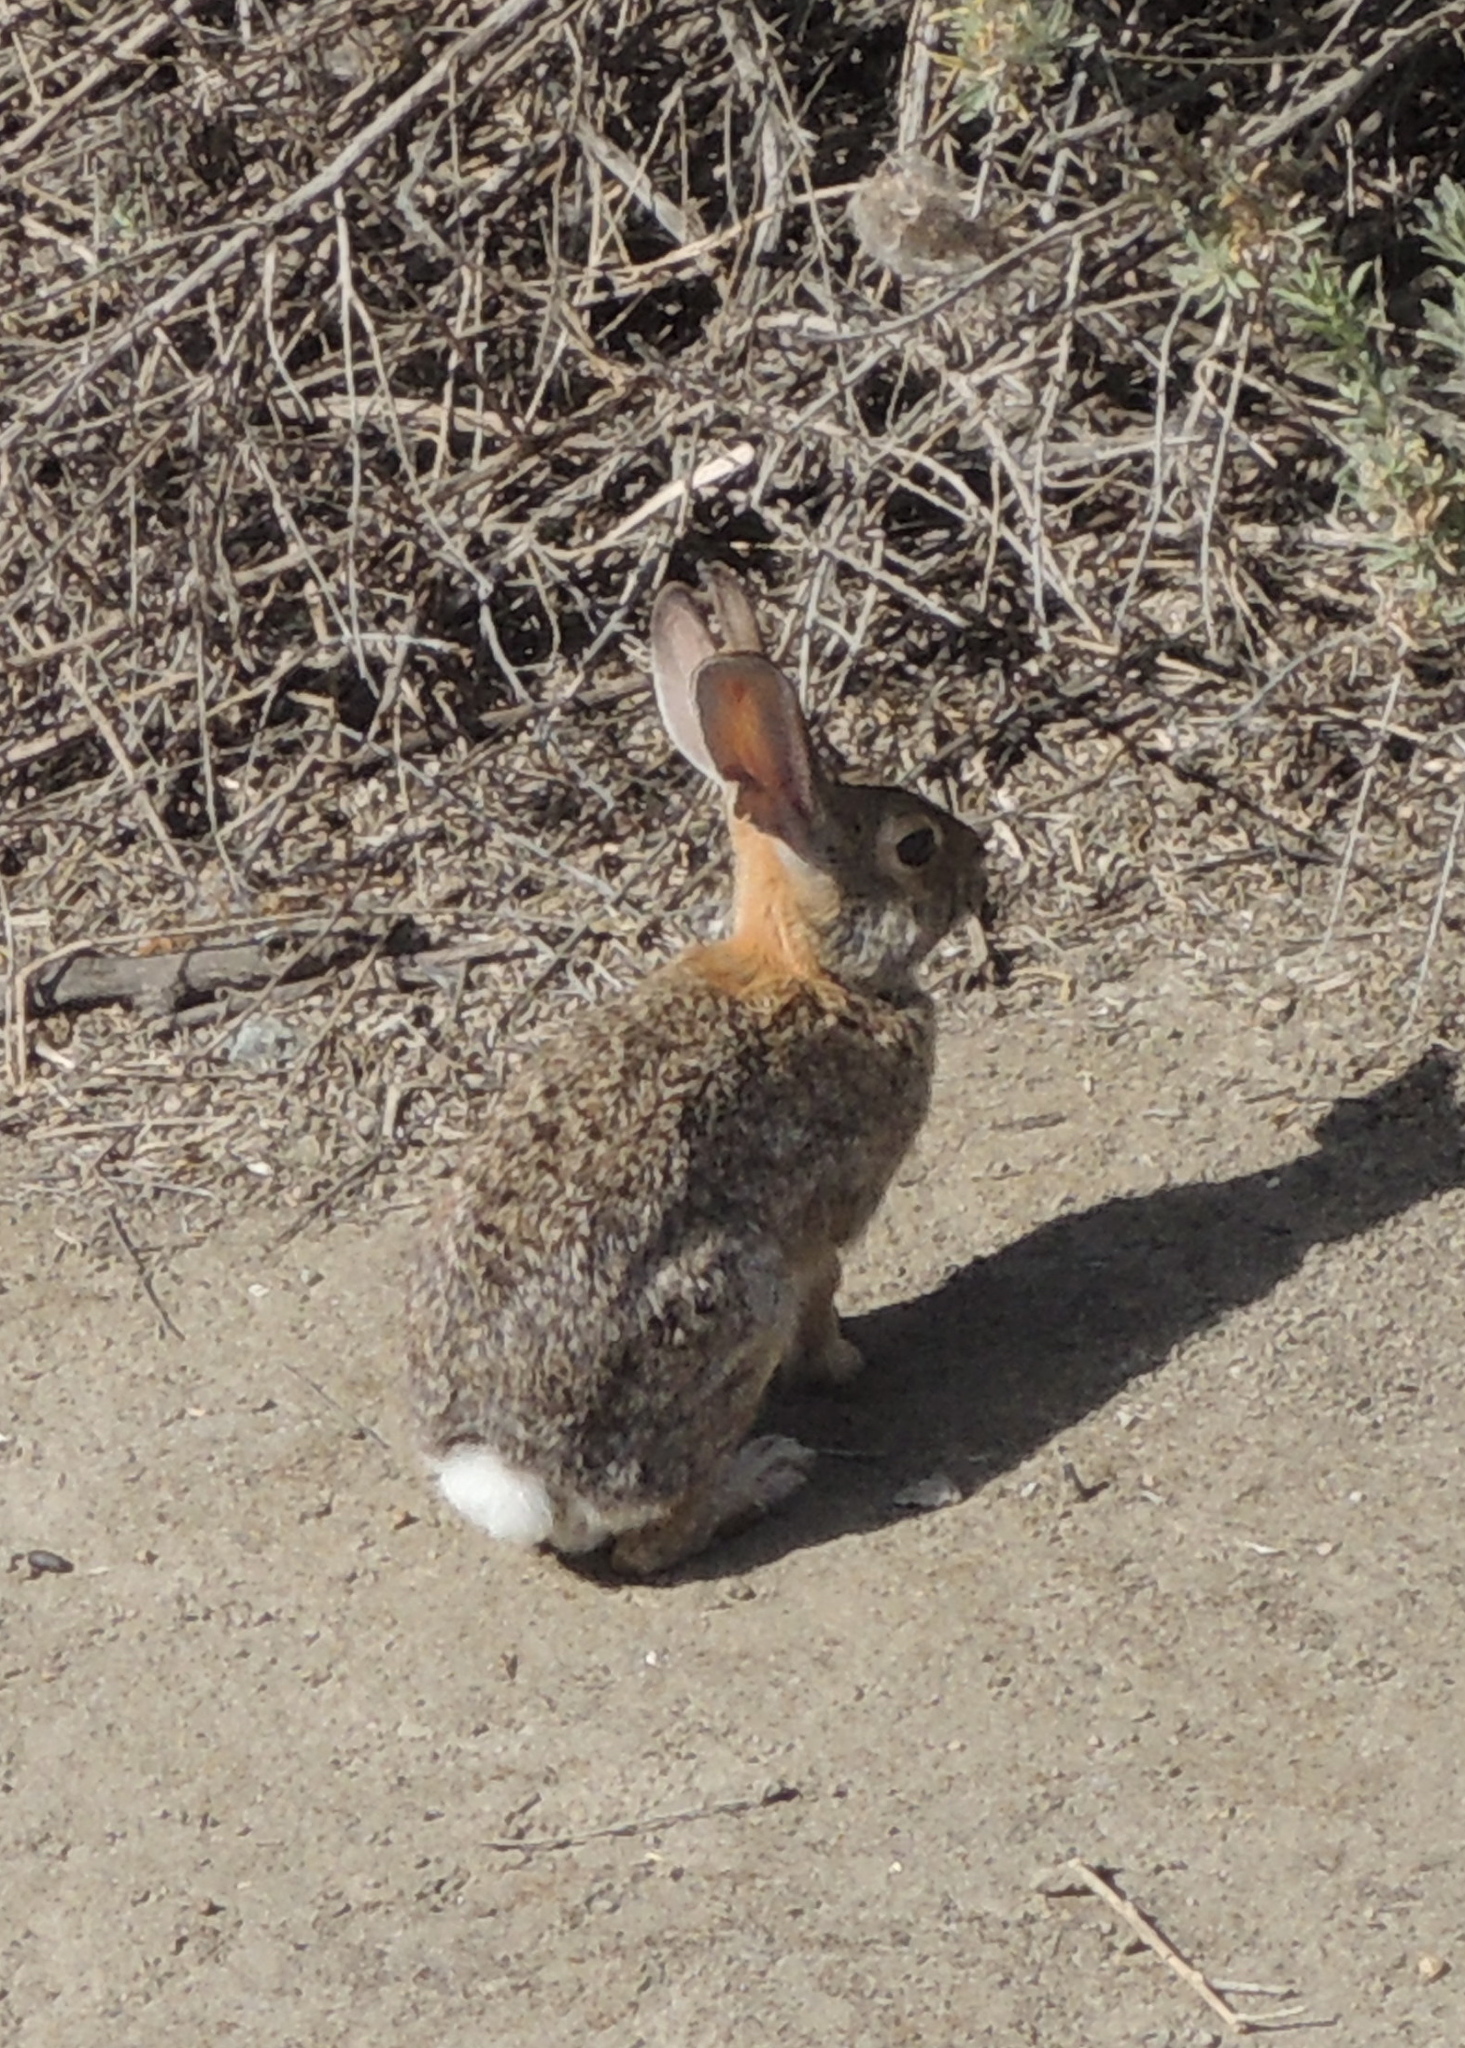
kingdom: Animalia
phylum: Chordata
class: Mammalia
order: Lagomorpha
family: Leporidae
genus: Sylvilagus
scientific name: Sylvilagus audubonii
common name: Desert cottontail
